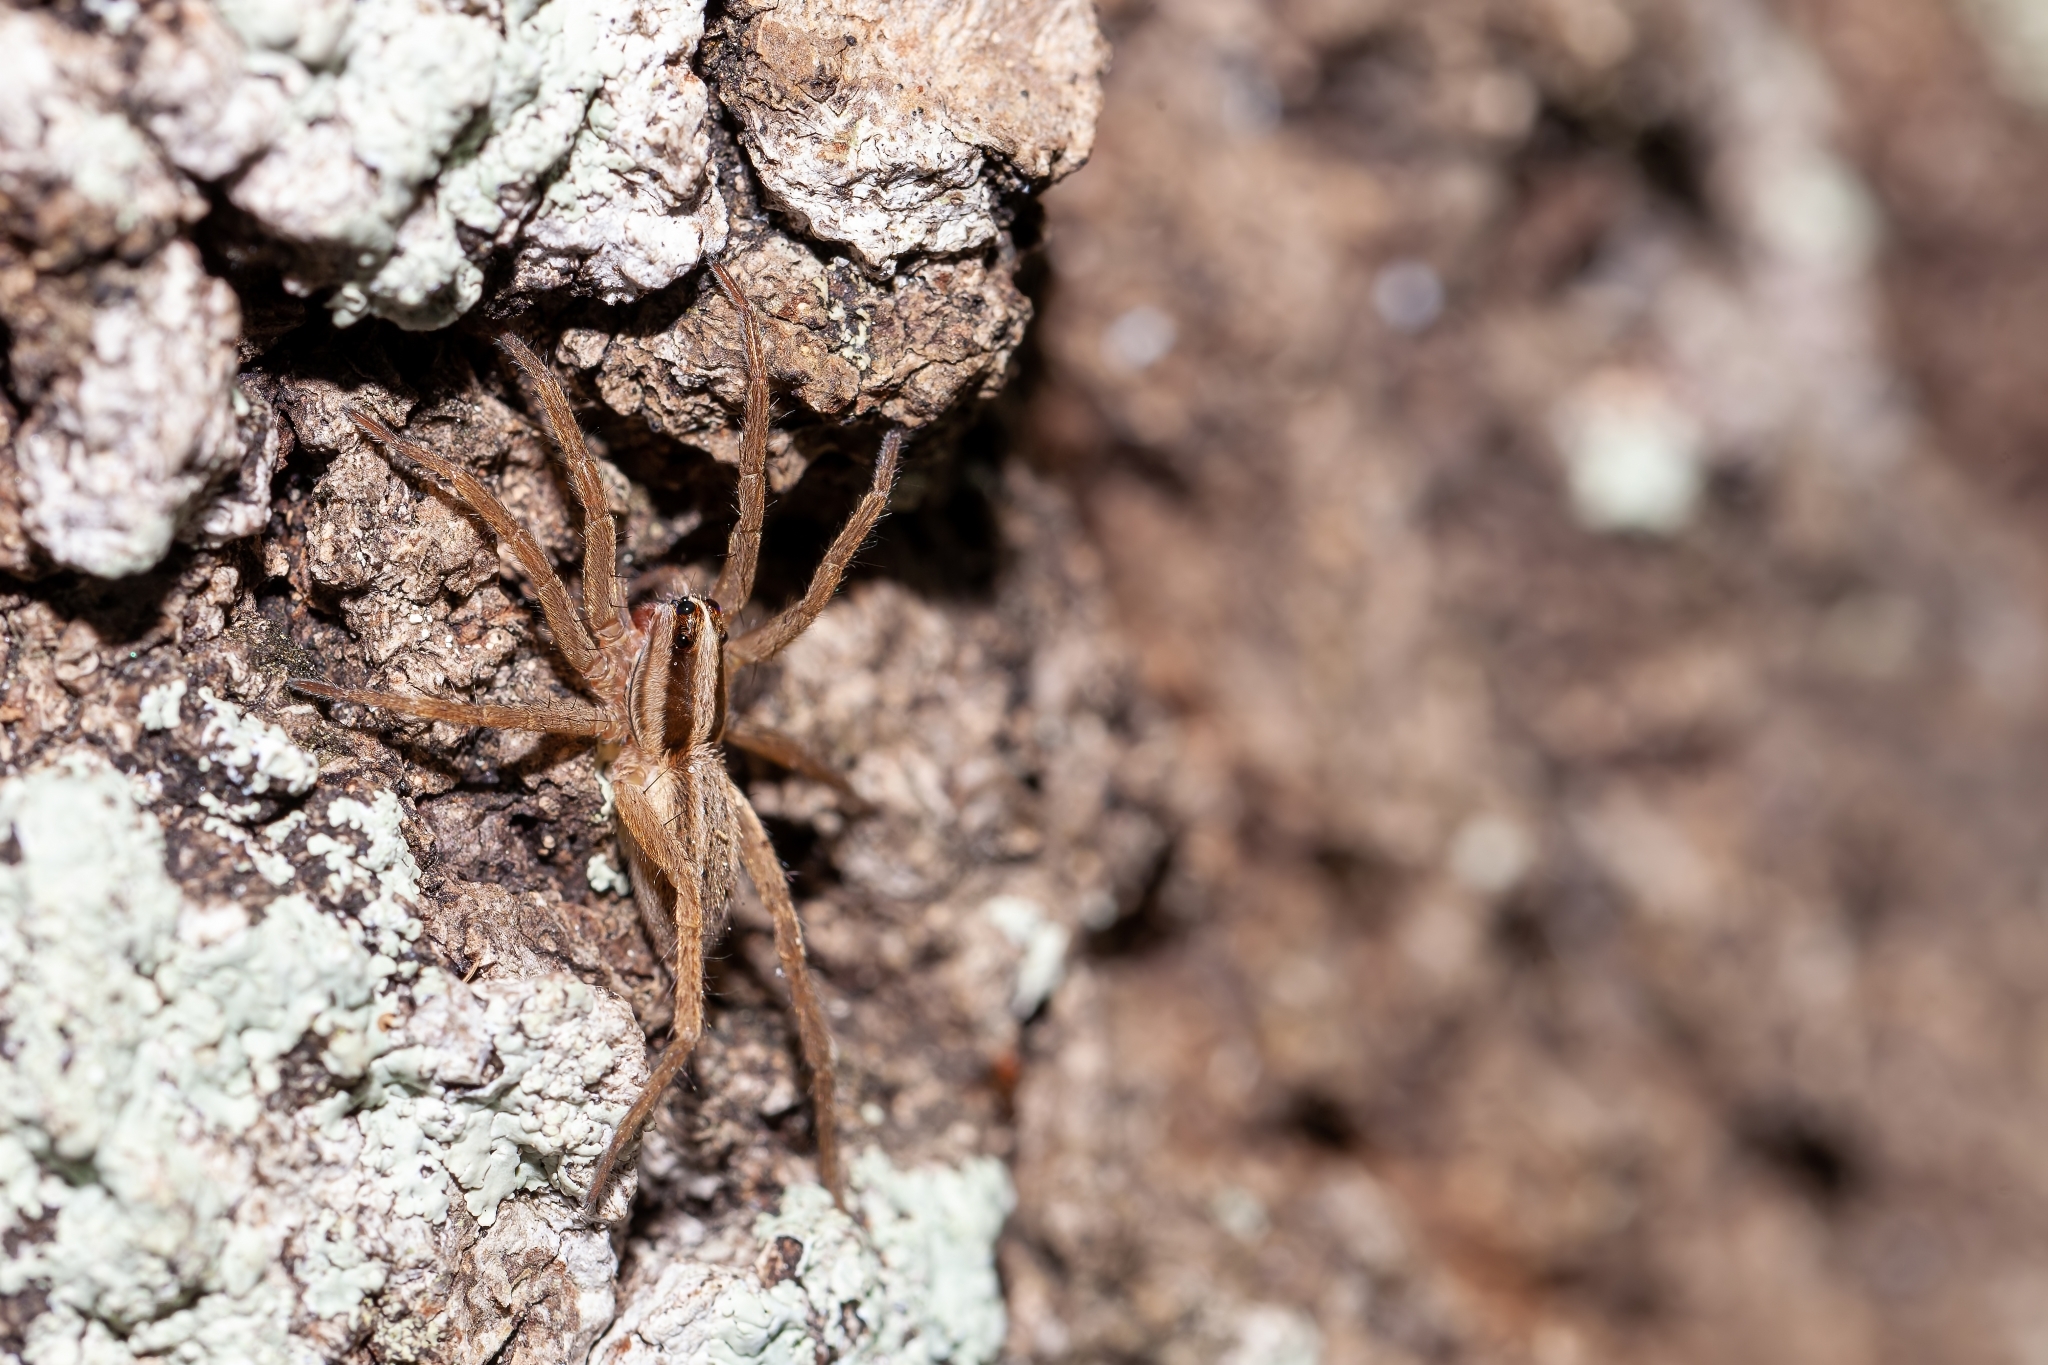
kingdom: Animalia
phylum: Arthropoda
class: Arachnida
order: Araneae
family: Lycosidae
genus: Rabidosa
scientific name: Rabidosa carrana
